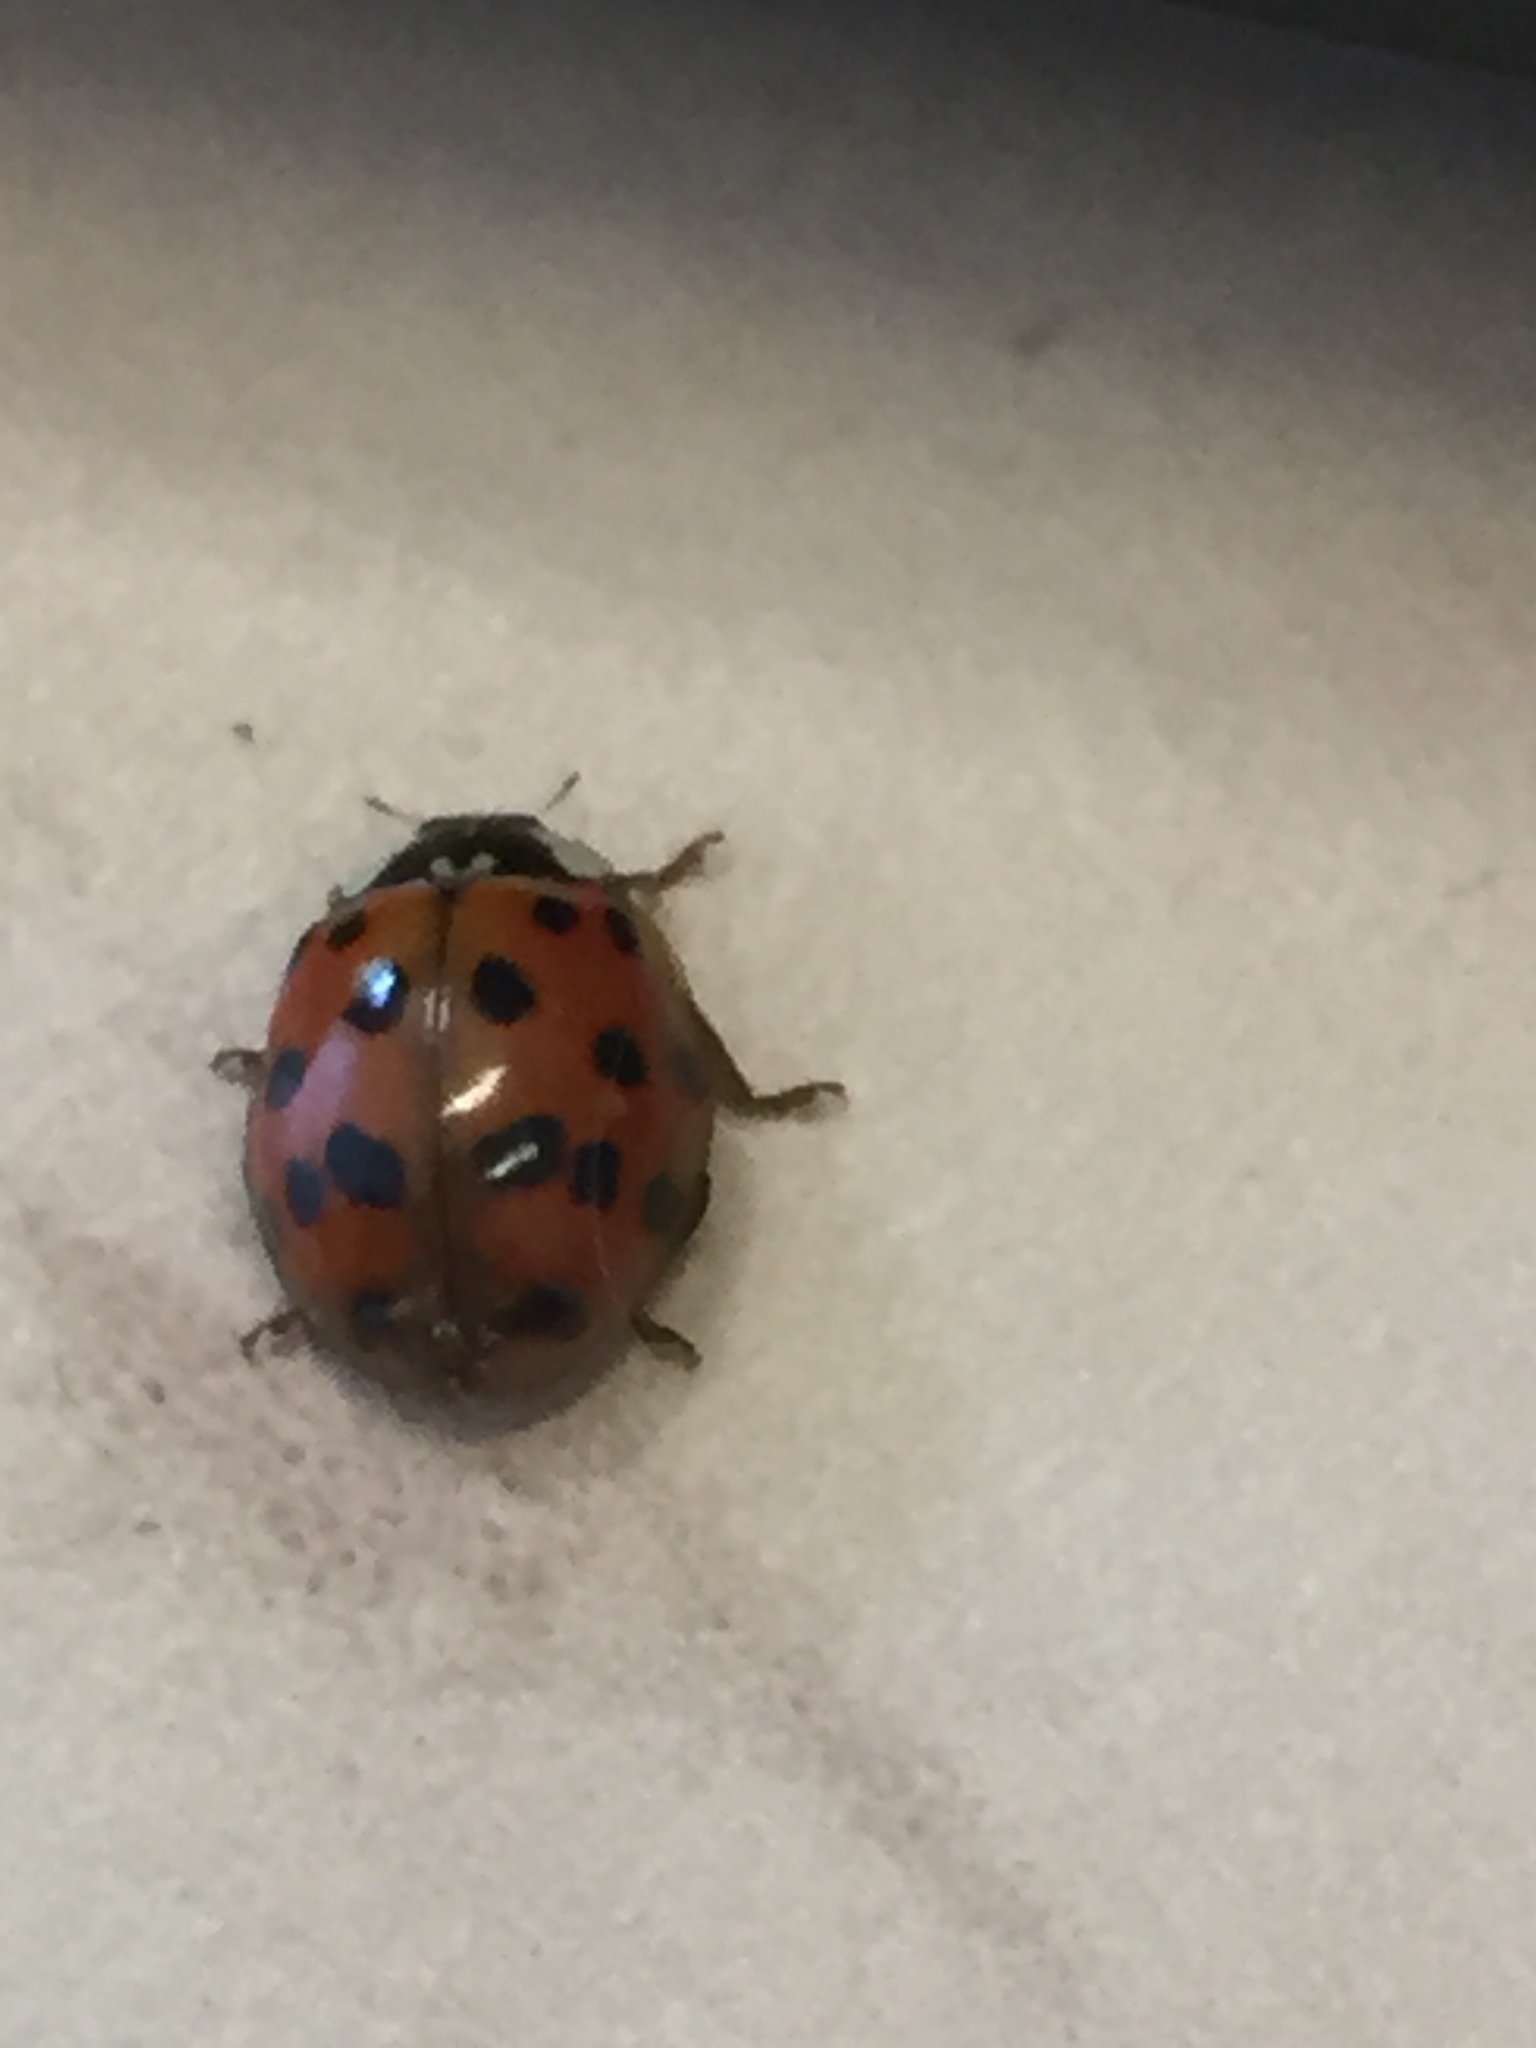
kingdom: Animalia
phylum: Arthropoda
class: Insecta
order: Coleoptera
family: Coccinellidae
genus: Harmonia
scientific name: Harmonia axyridis
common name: Harlequin ladybird
